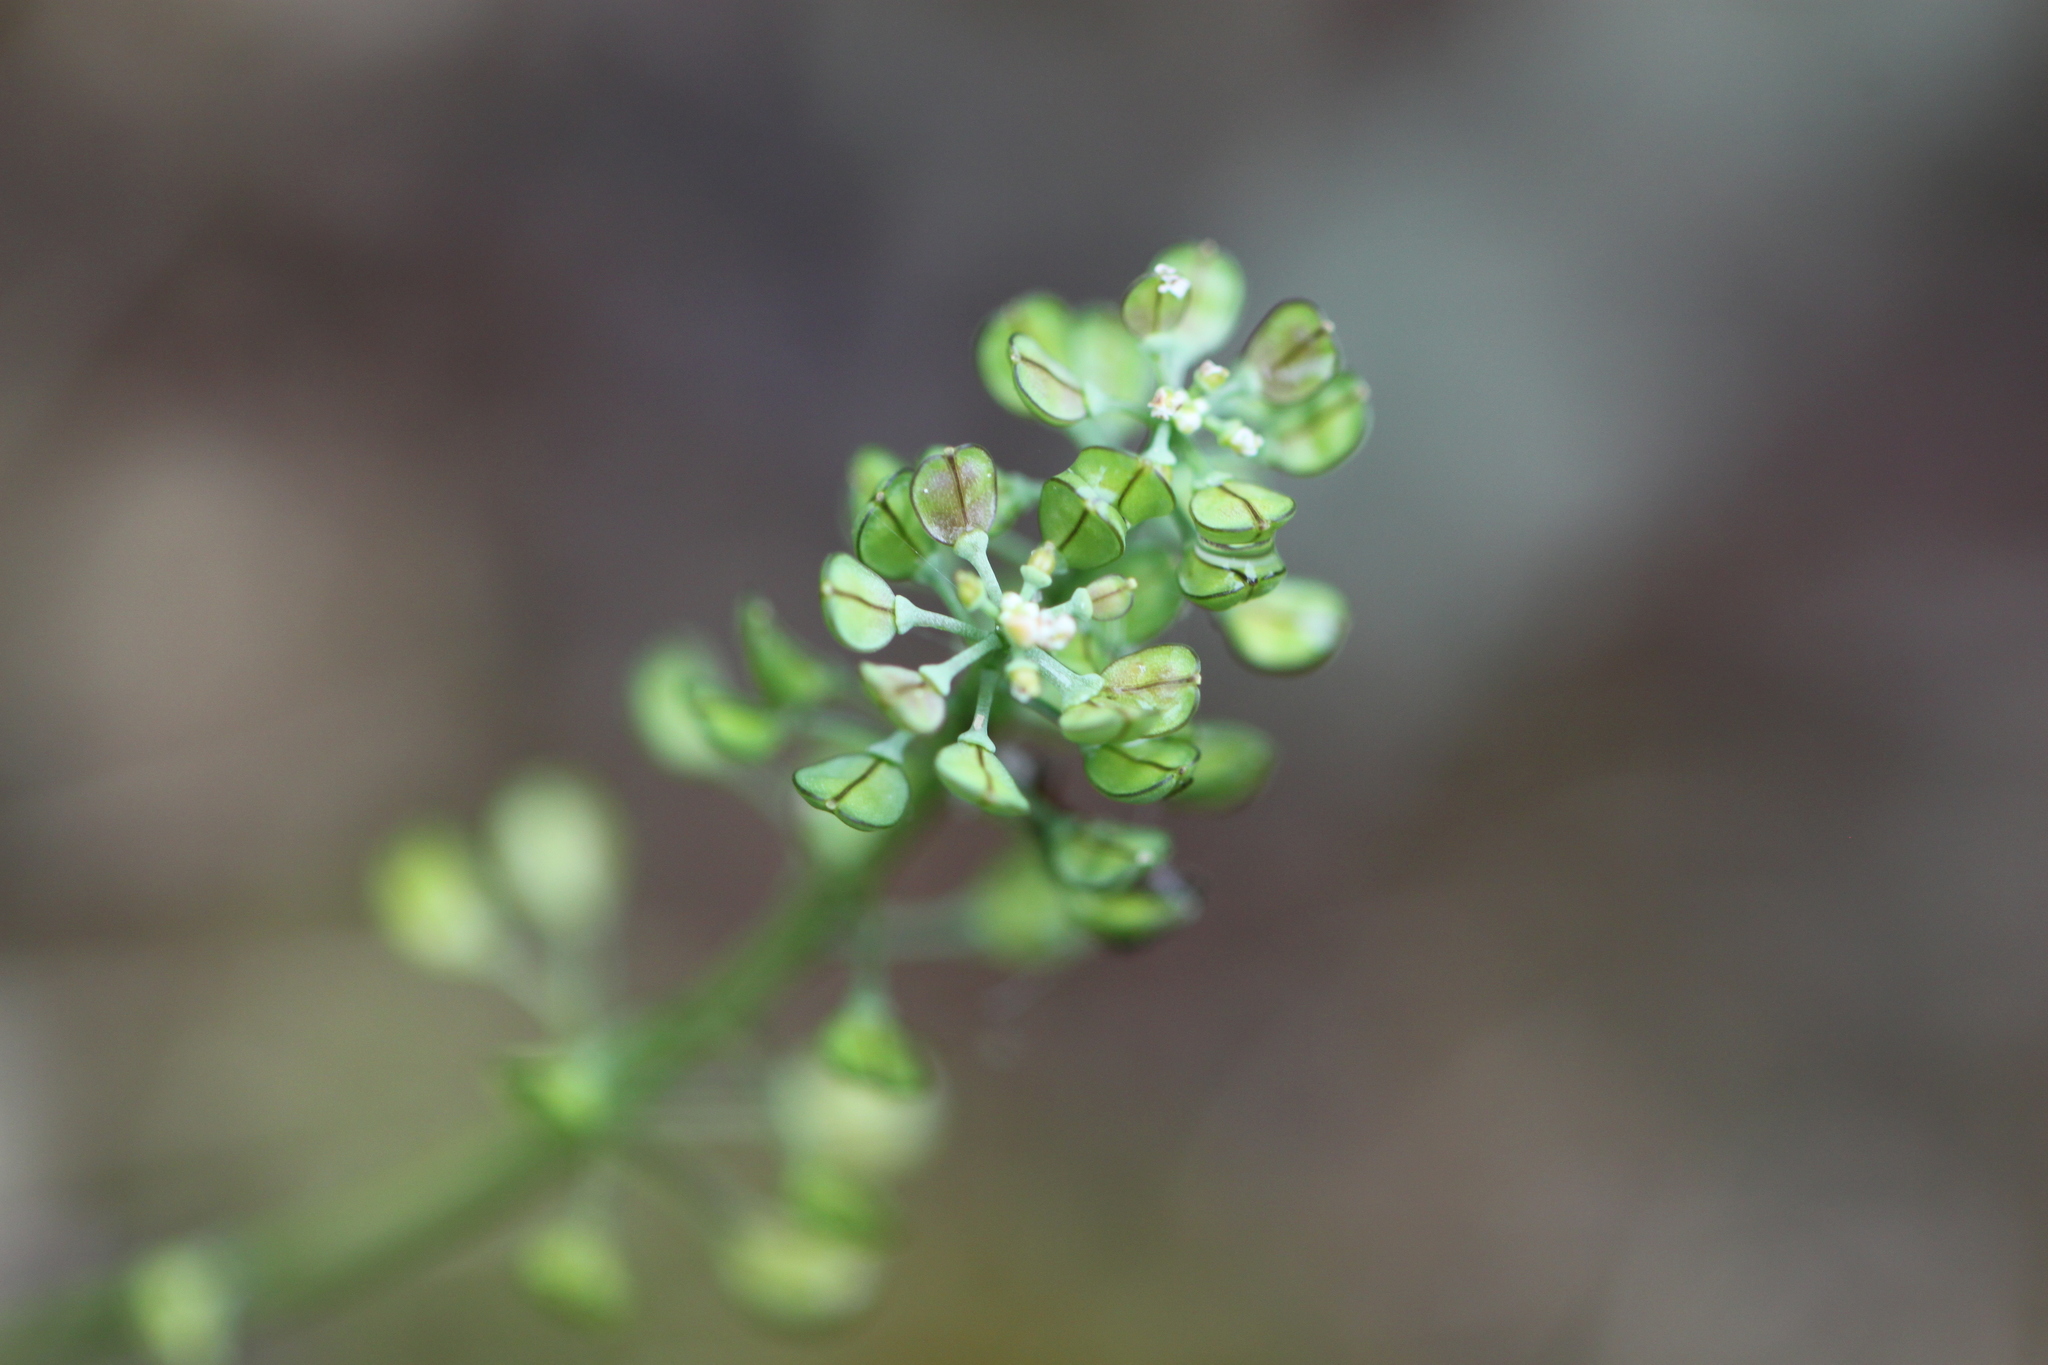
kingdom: Plantae
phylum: Tracheophyta
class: Magnoliopsida
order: Brassicales
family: Brassicaceae
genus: Teesdalia
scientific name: Teesdalia nudicaulis
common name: Shepherd's cress
